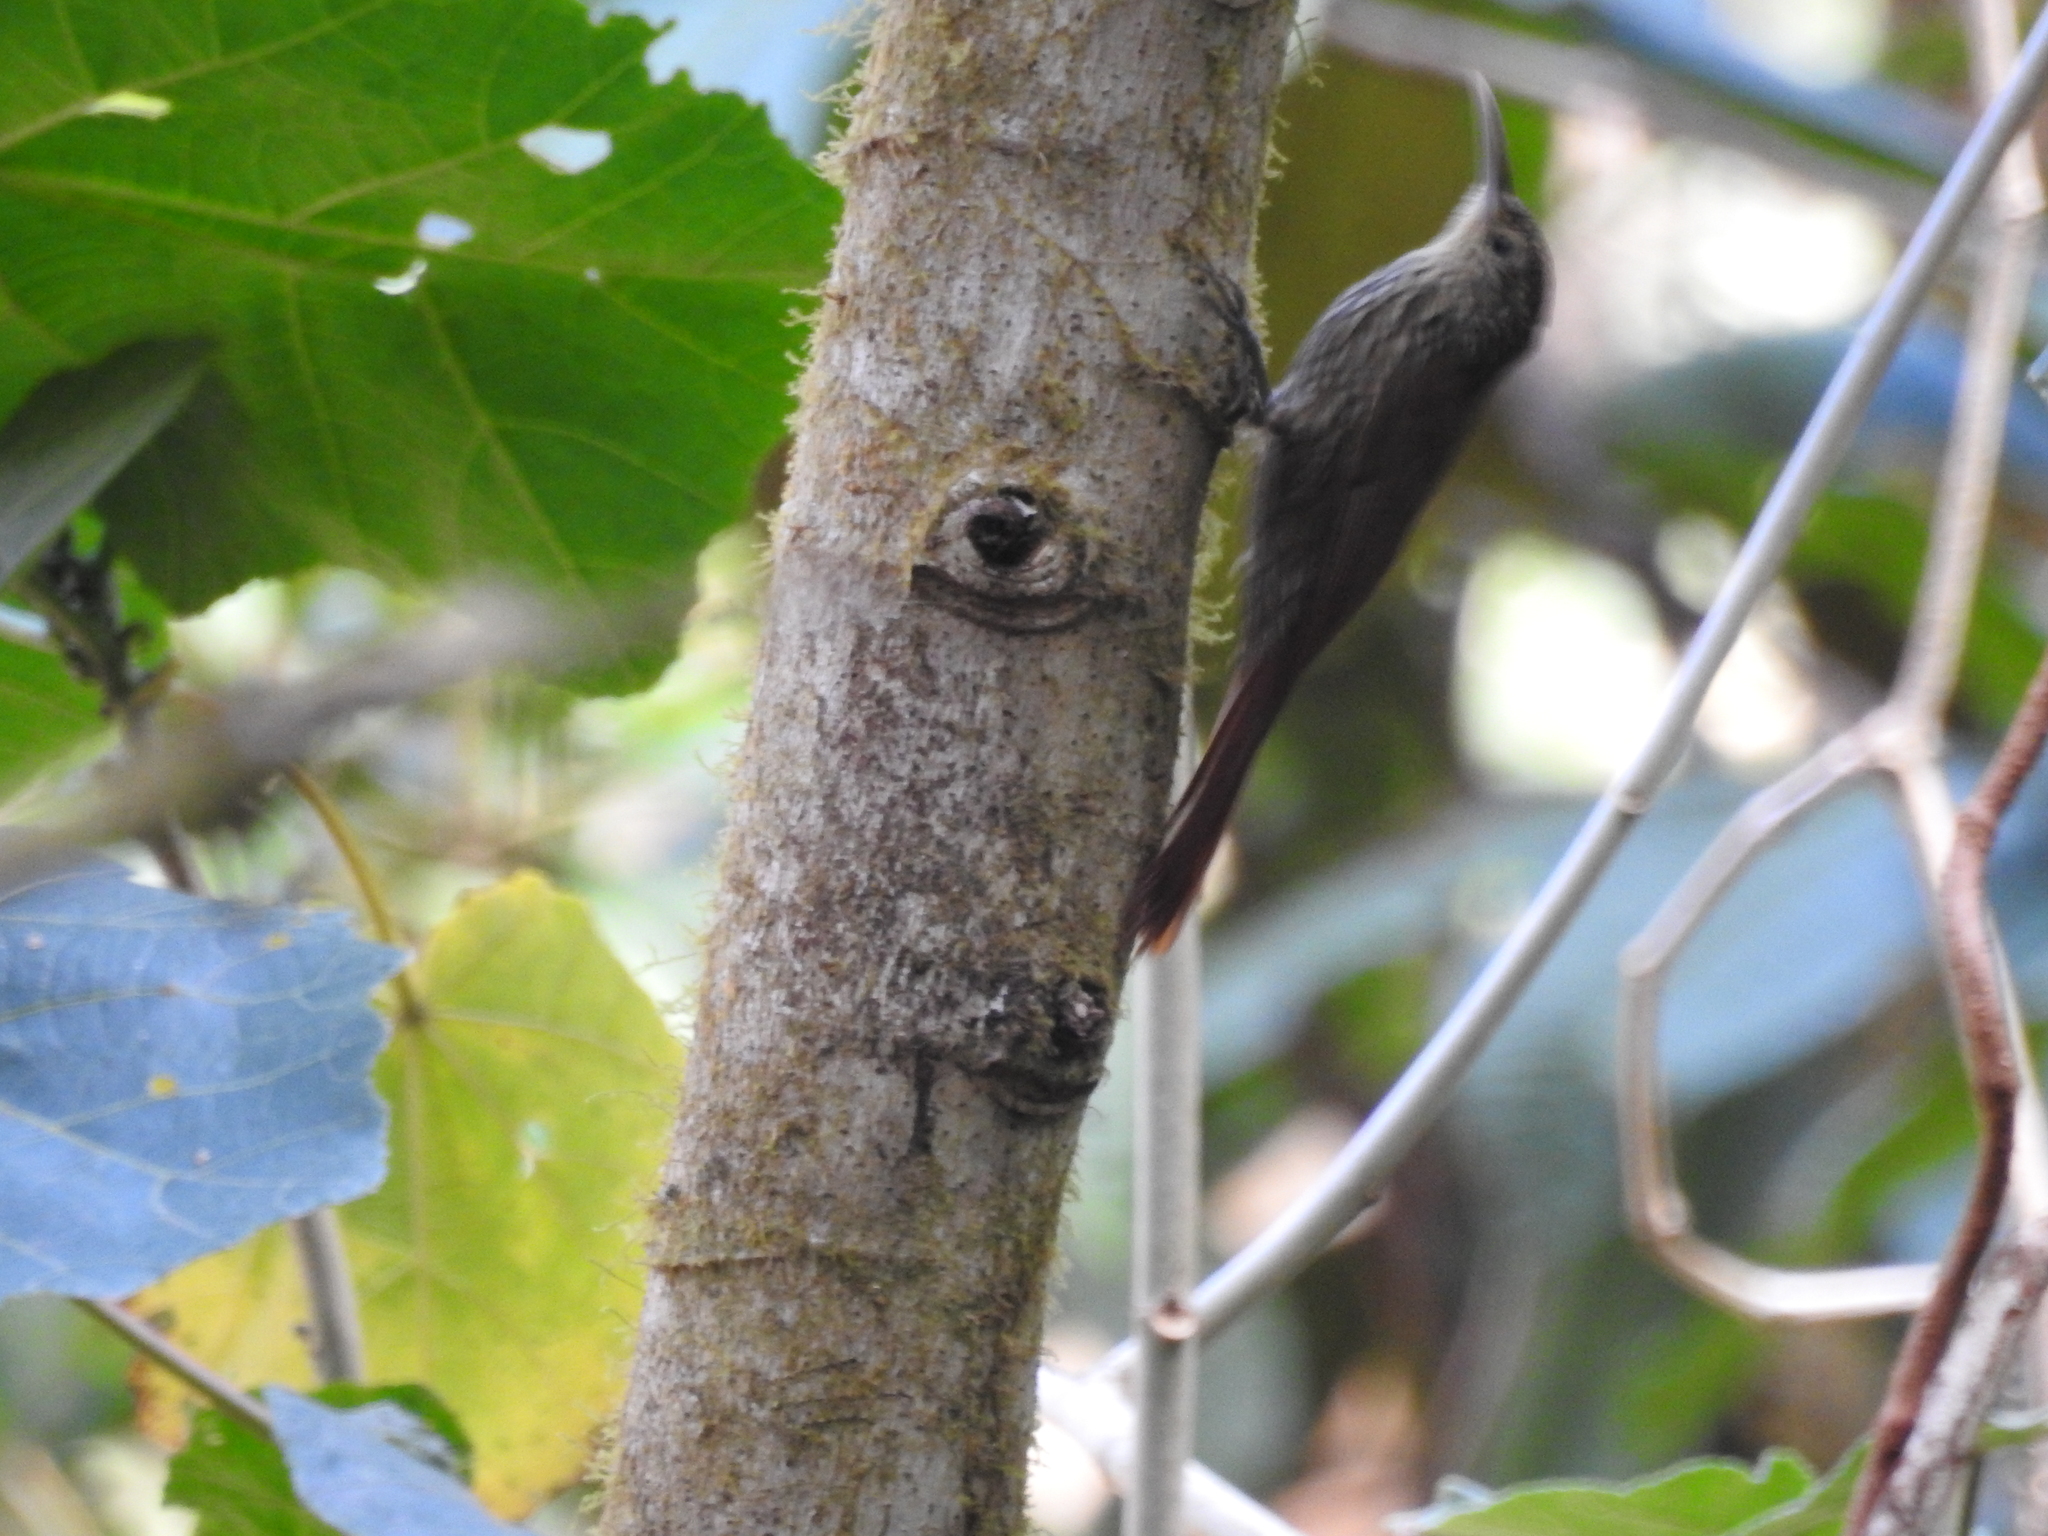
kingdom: Animalia
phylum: Chordata
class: Aves
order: Passeriformes
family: Furnariidae
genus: Lepidocolaptes
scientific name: Lepidocolaptes affinis
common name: Spot-crowned woodcreeper
